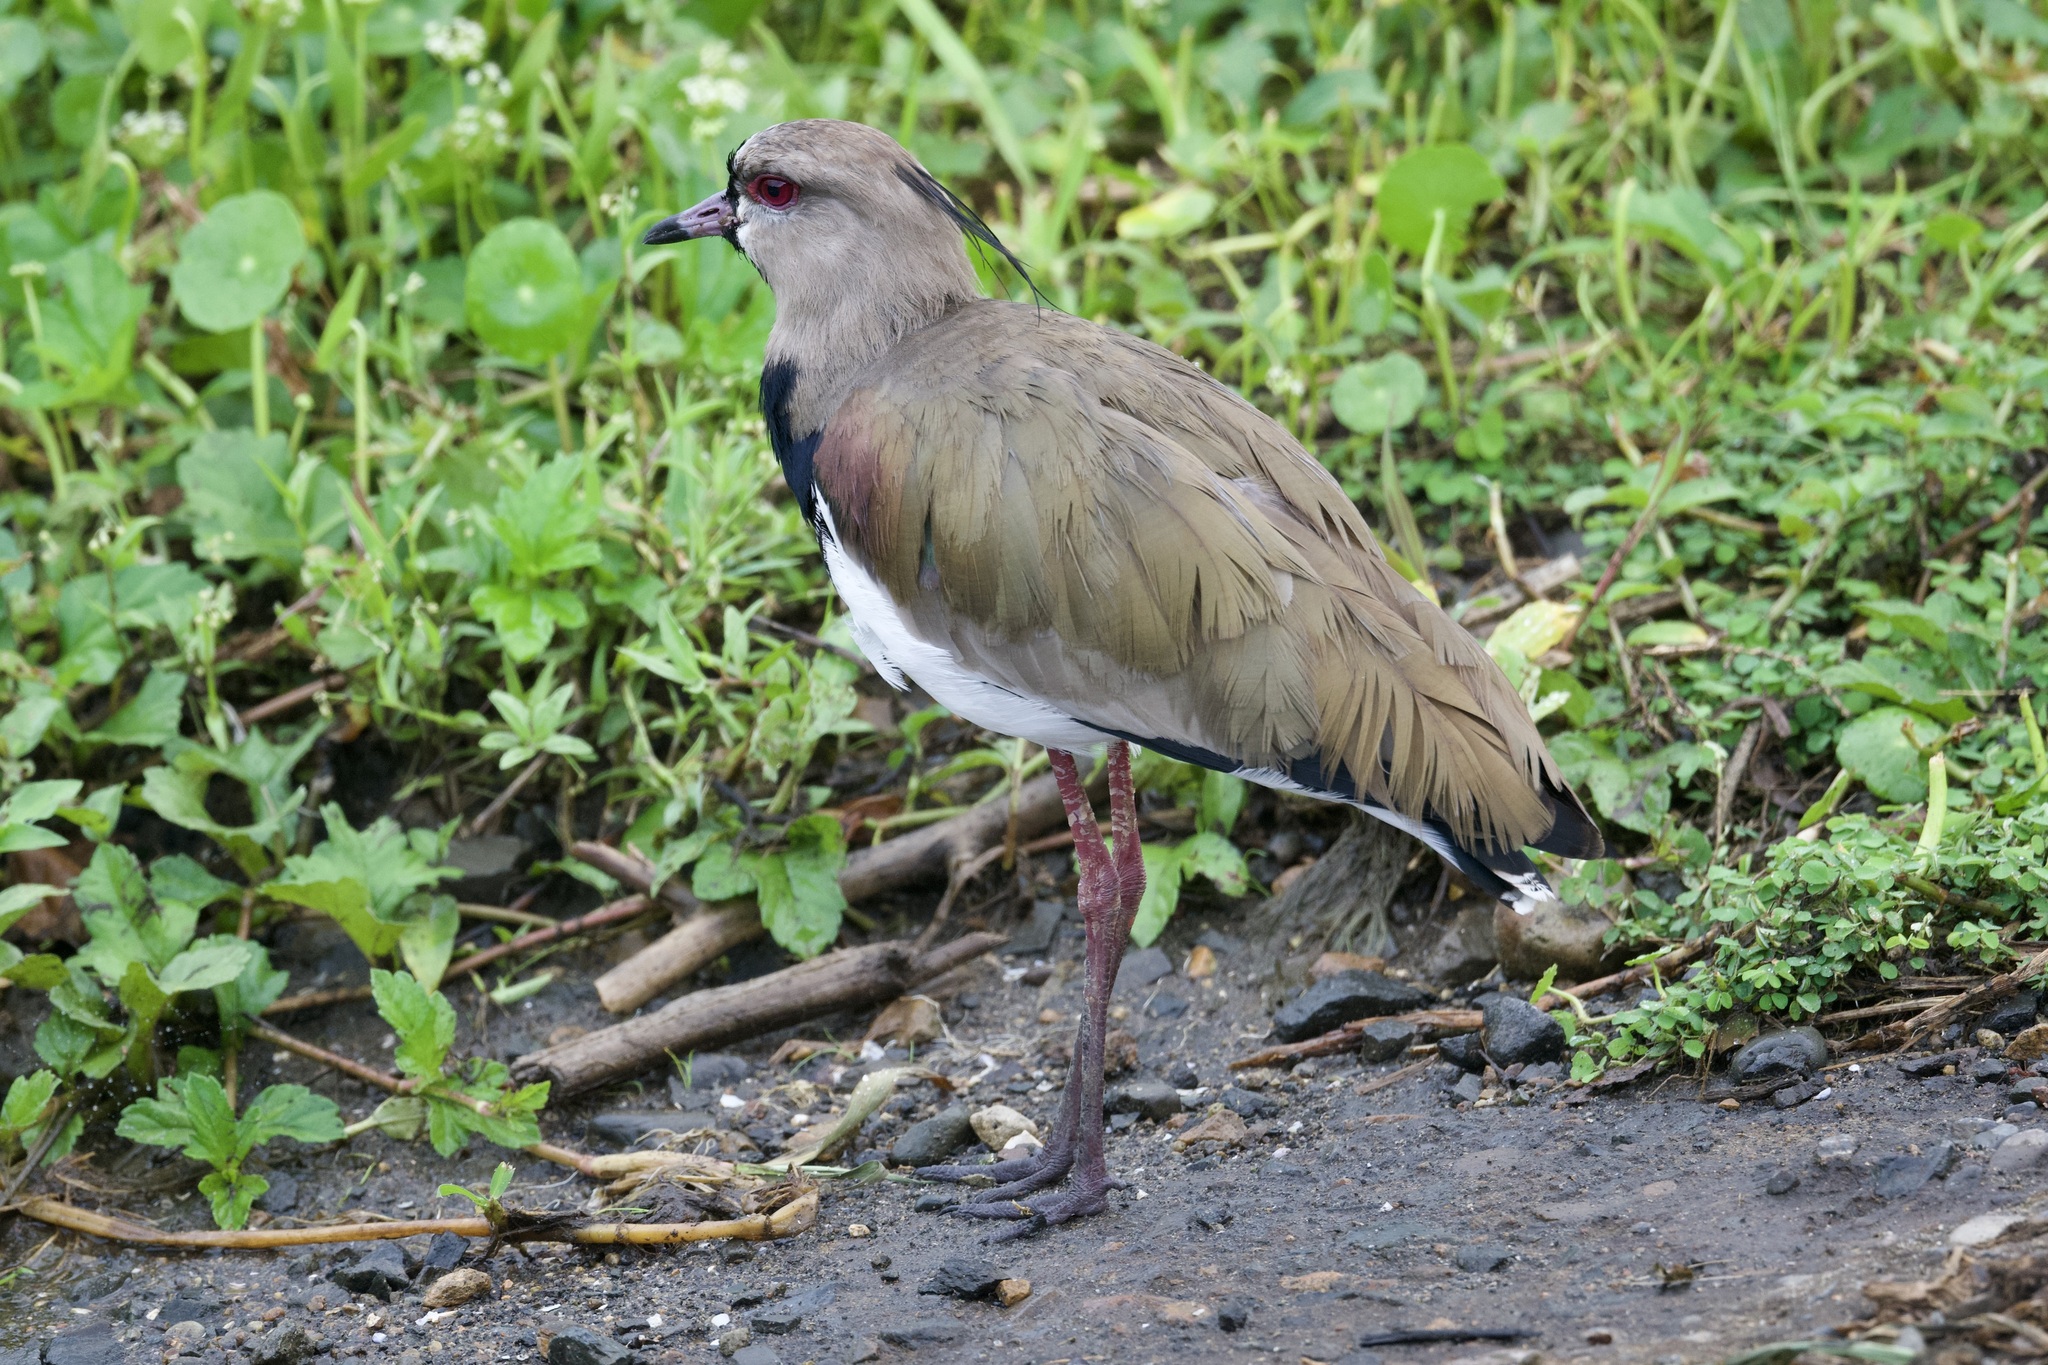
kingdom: Animalia
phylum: Chordata
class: Aves
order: Charadriiformes
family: Charadriidae
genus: Vanellus
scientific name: Vanellus chilensis
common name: Southern lapwing
